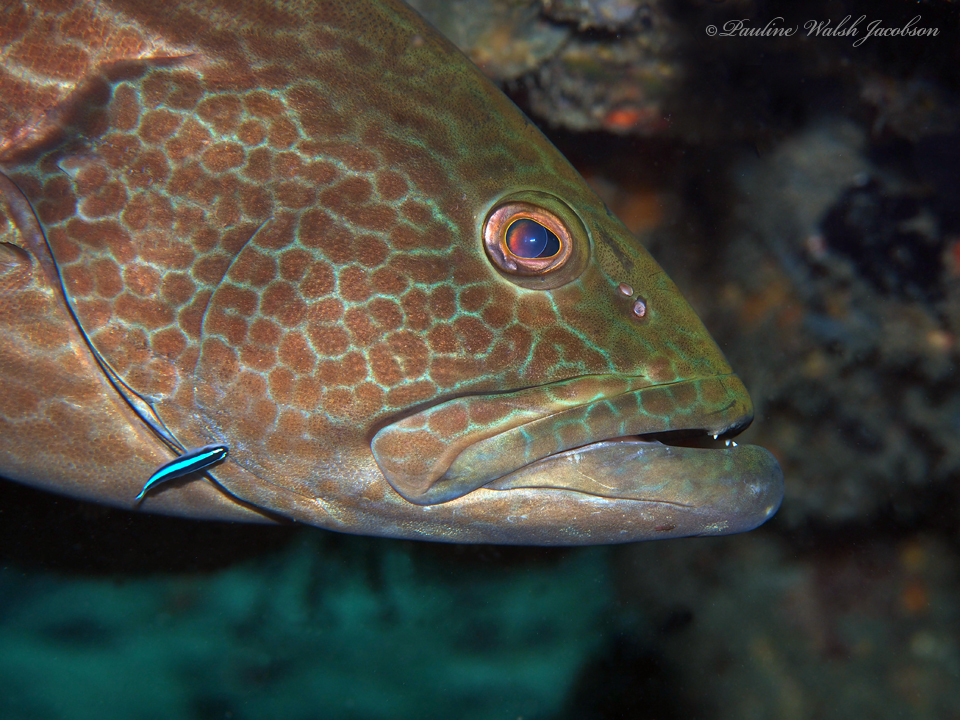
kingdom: Animalia
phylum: Chordata
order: Perciformes
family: Gobiidae
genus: Elacatinus
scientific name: Elacatinus oceanops
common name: Northern neon goby
